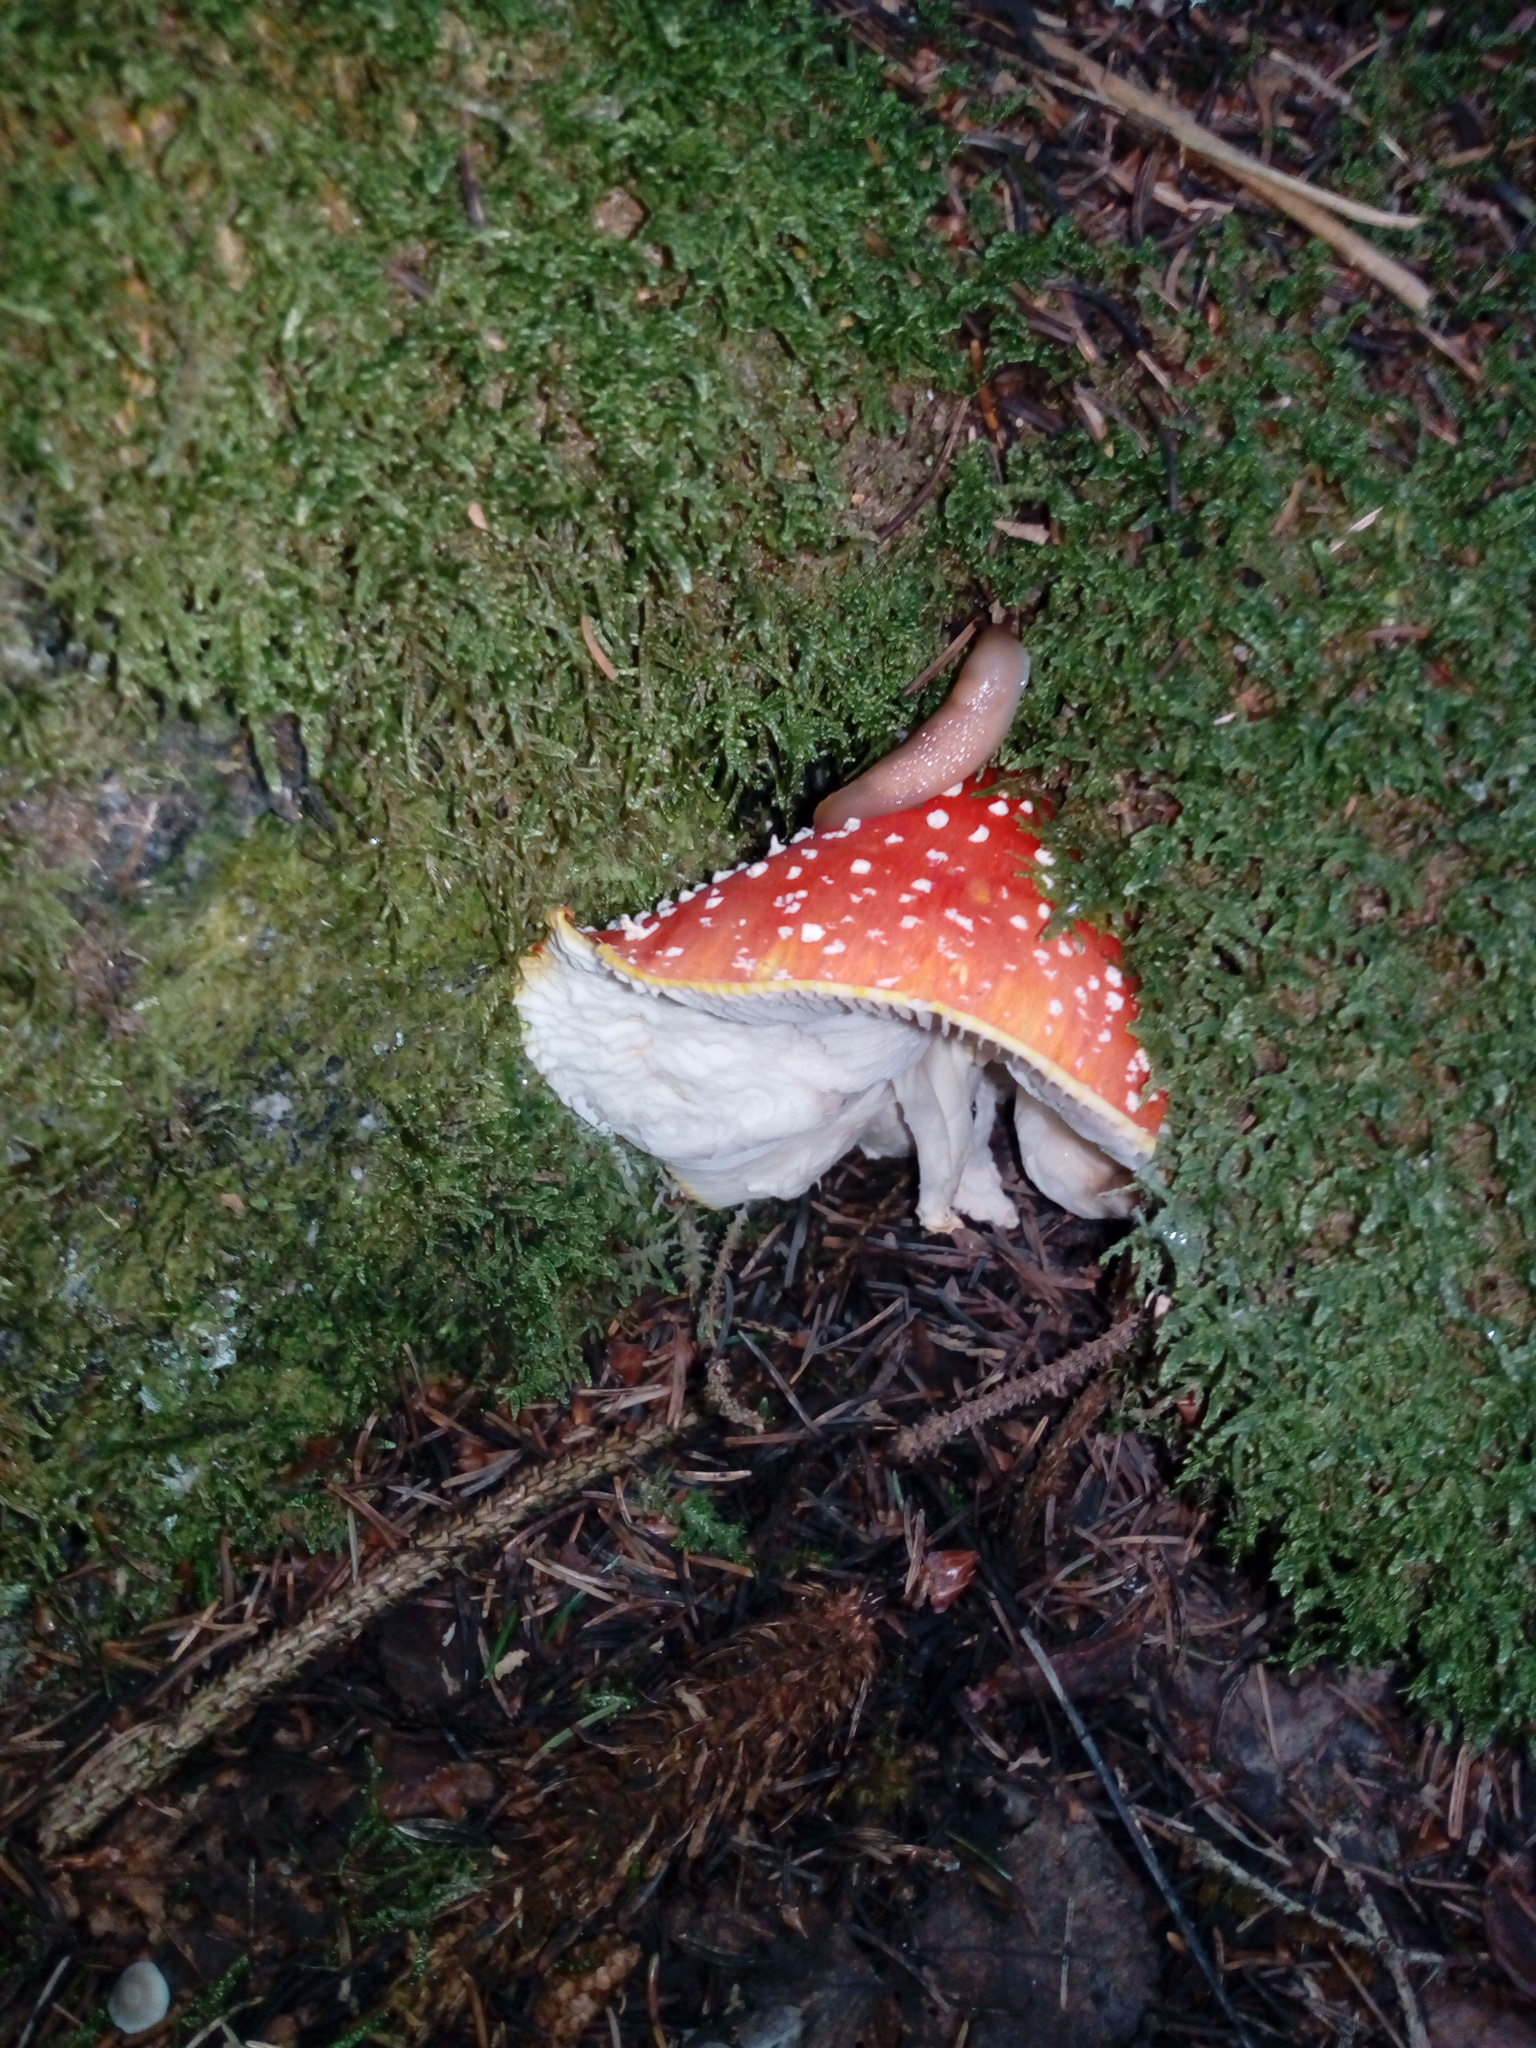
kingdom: Fungi
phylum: Basidiomycota
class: Agaricomycetes
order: Agaricales
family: Amanitaceae
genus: Amanita
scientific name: Amanita muscaria
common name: Fly agaric
